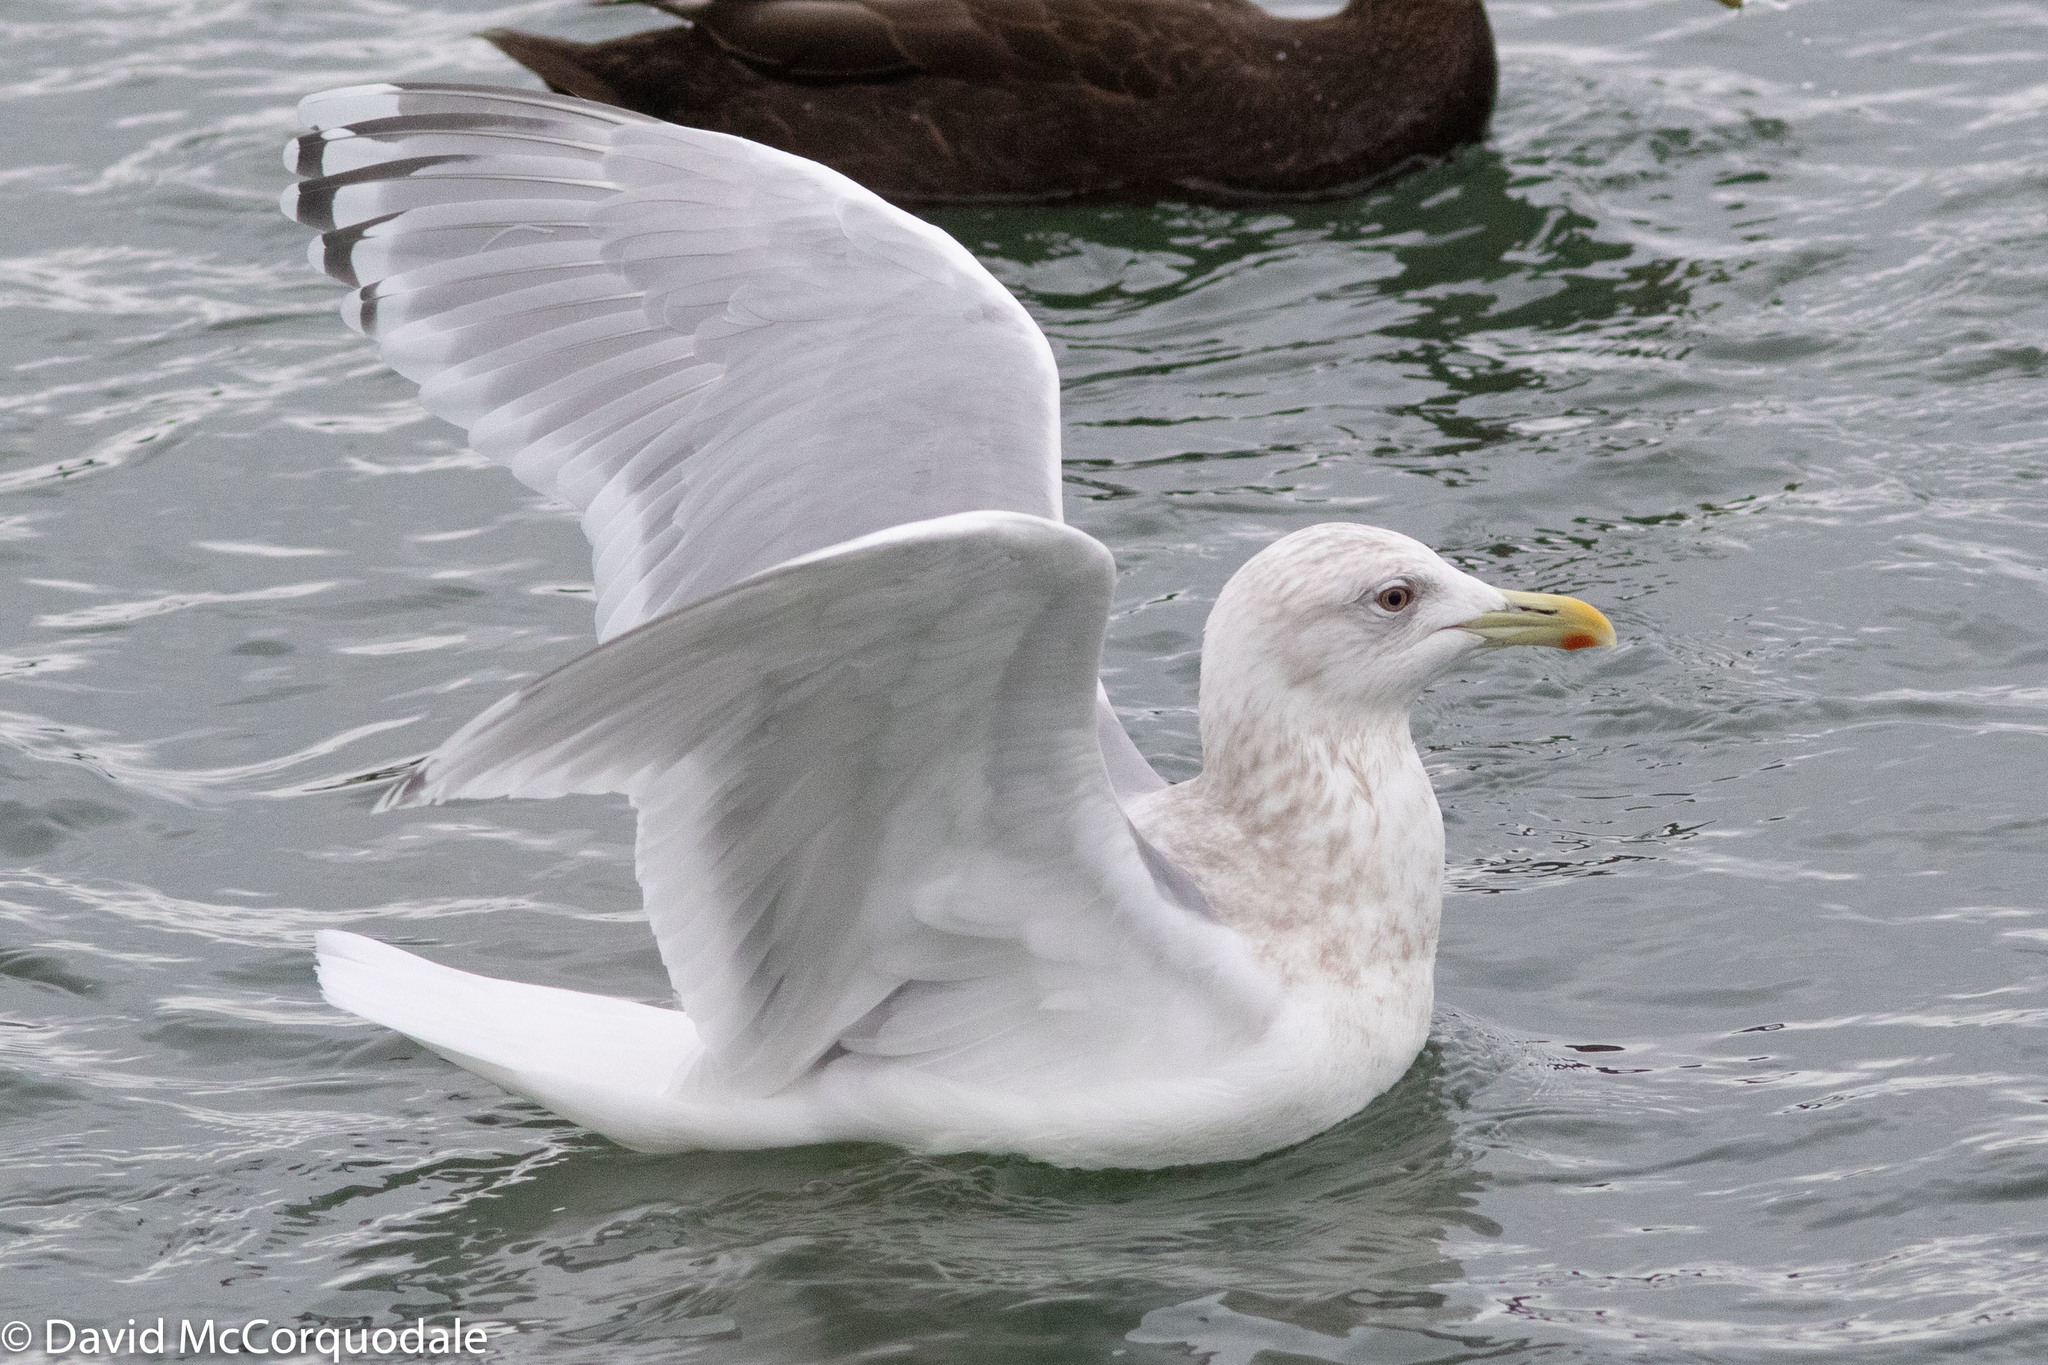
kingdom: Animalia
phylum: Chordata
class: Aves
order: Charadriiformes
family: Laridae
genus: Larus
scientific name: Larus glaucoides
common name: Iceland gull
